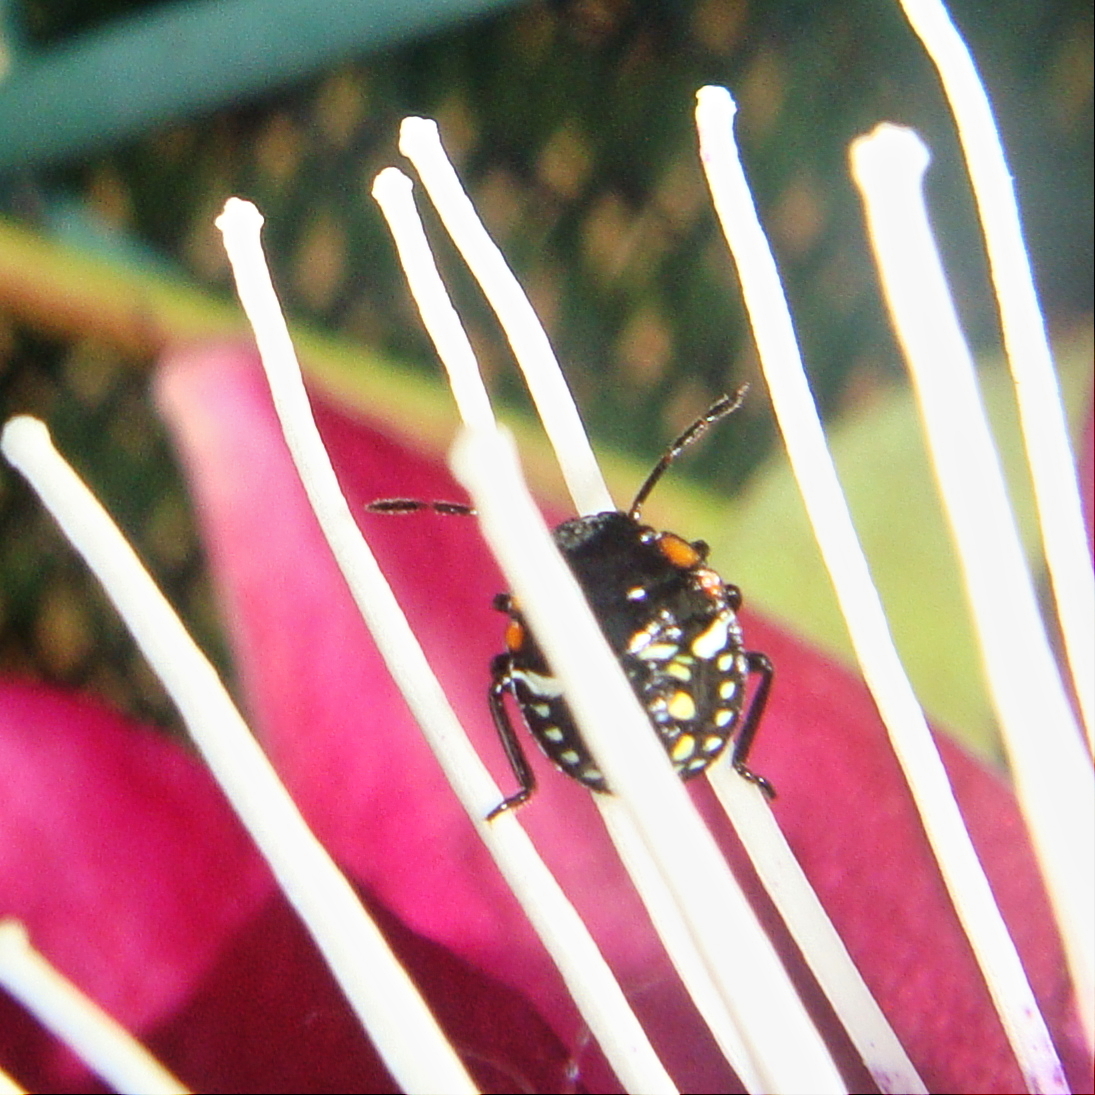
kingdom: Animalia
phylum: Arthropoda
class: Insecta
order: Hemiptera
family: Pentatomidae
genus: Nezara
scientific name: Nezara viridula
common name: Southern green stink bug
